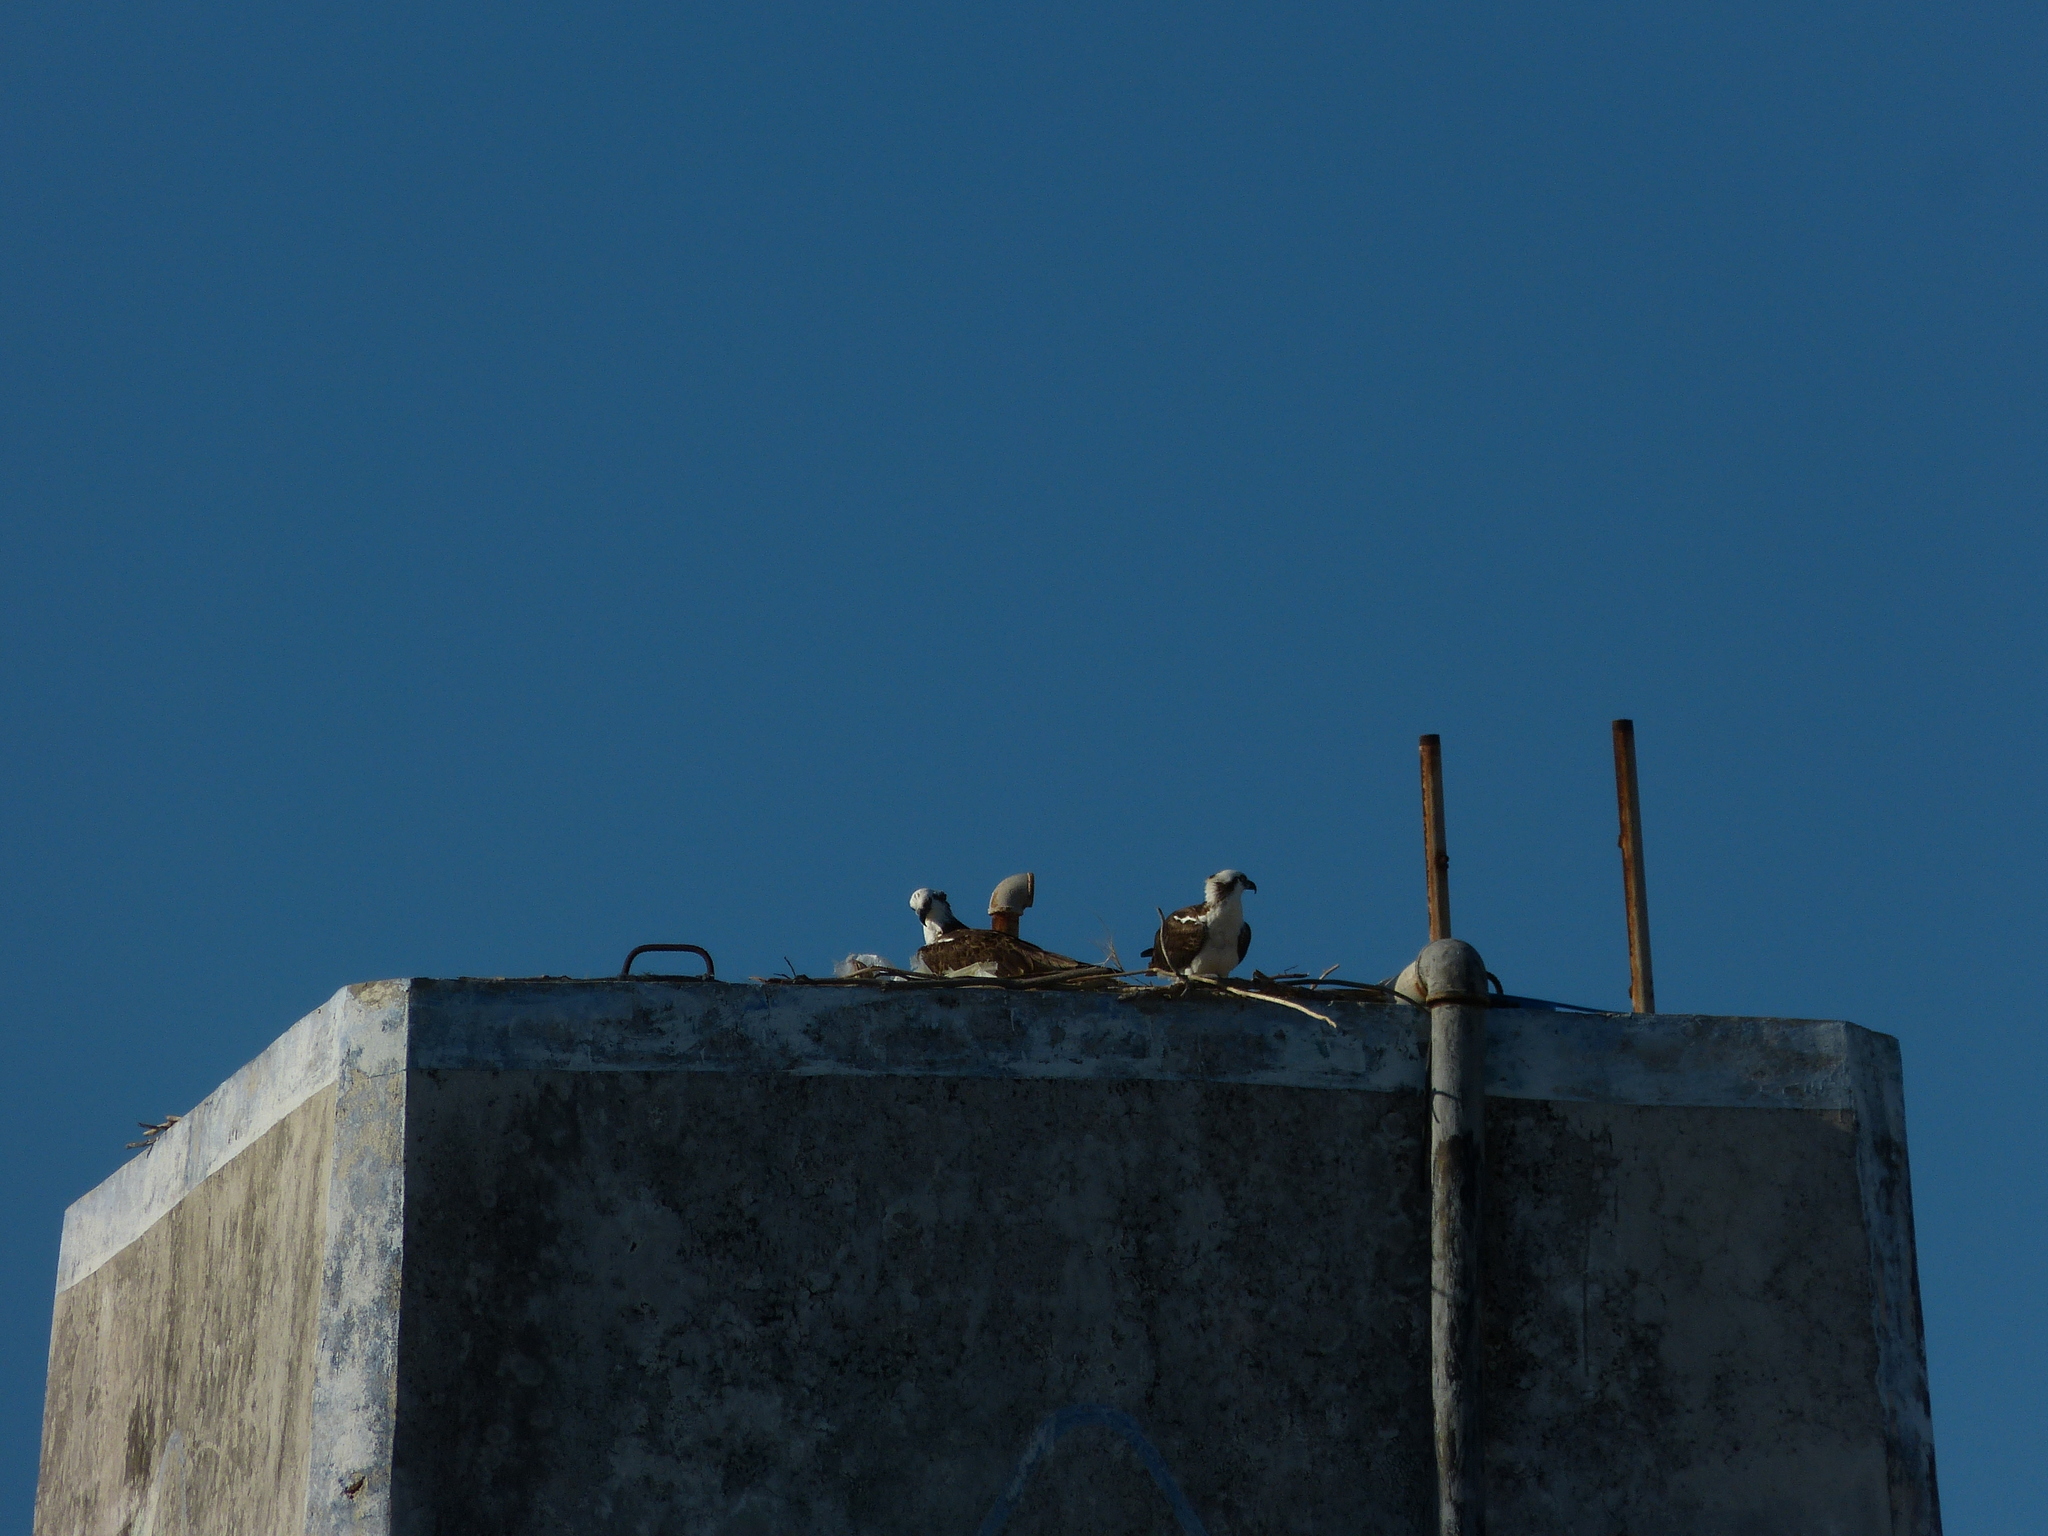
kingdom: Animalia
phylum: Chordata
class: Aves
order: Accipitriformes
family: Pandionidae
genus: Pandion
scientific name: Pandion haliaetus
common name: Osprey
